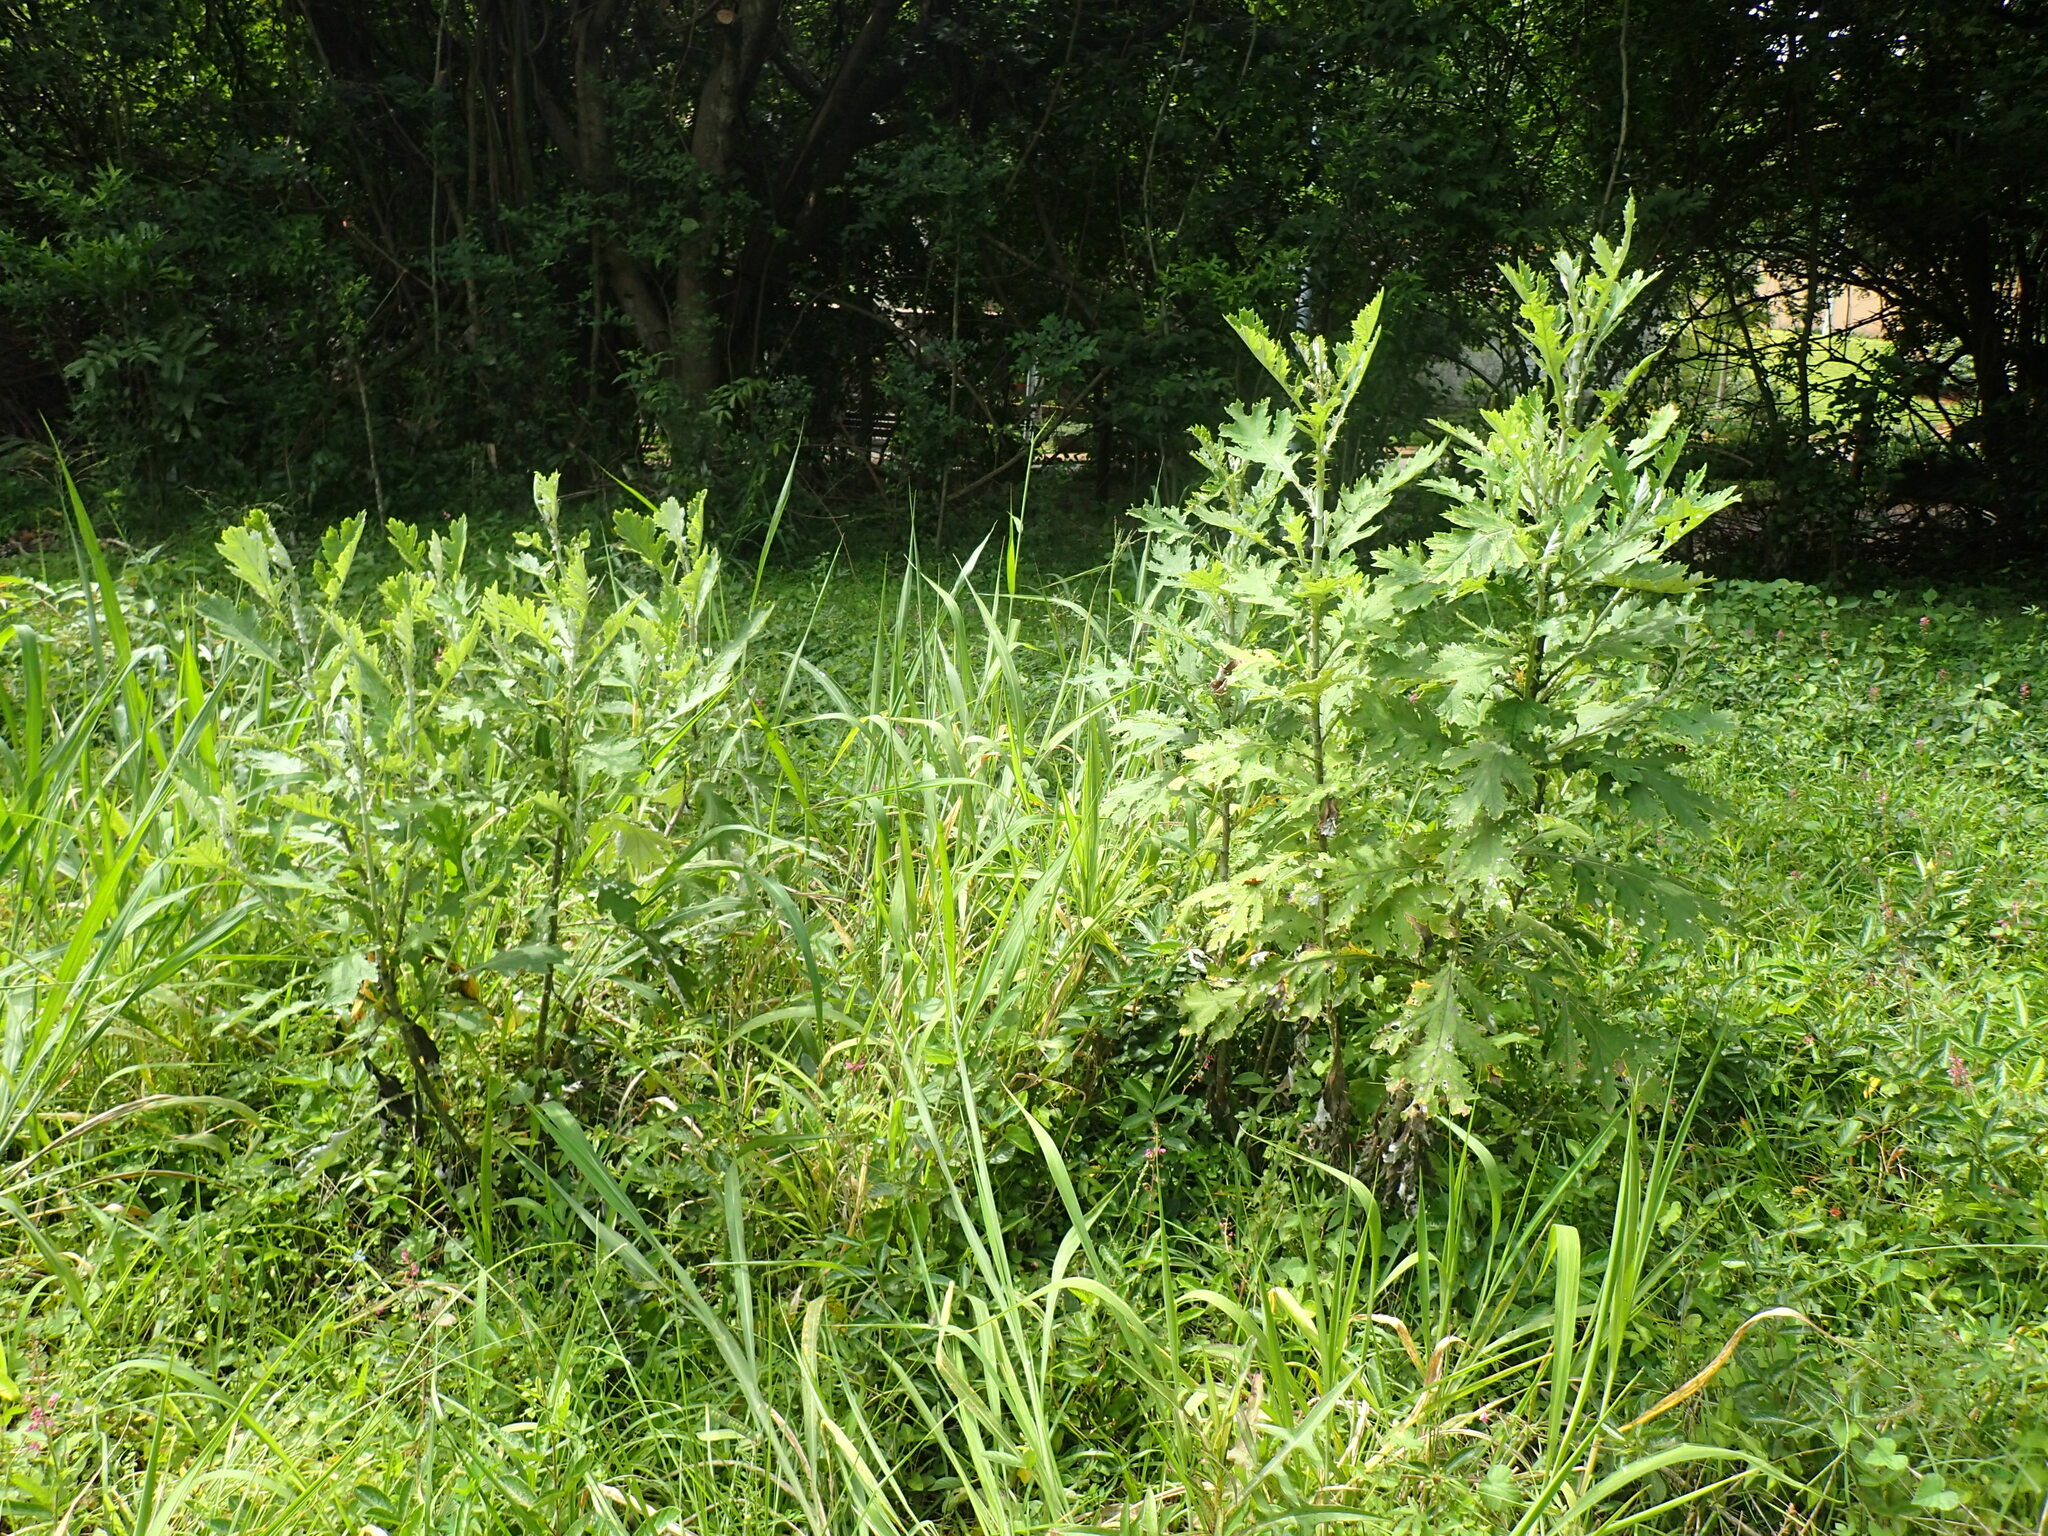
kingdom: Plantae
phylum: Tracheophyta
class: Magnoliopsida
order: Asterales
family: Asteraceae
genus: Berkheya
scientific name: Berkheya bipinnatifida
